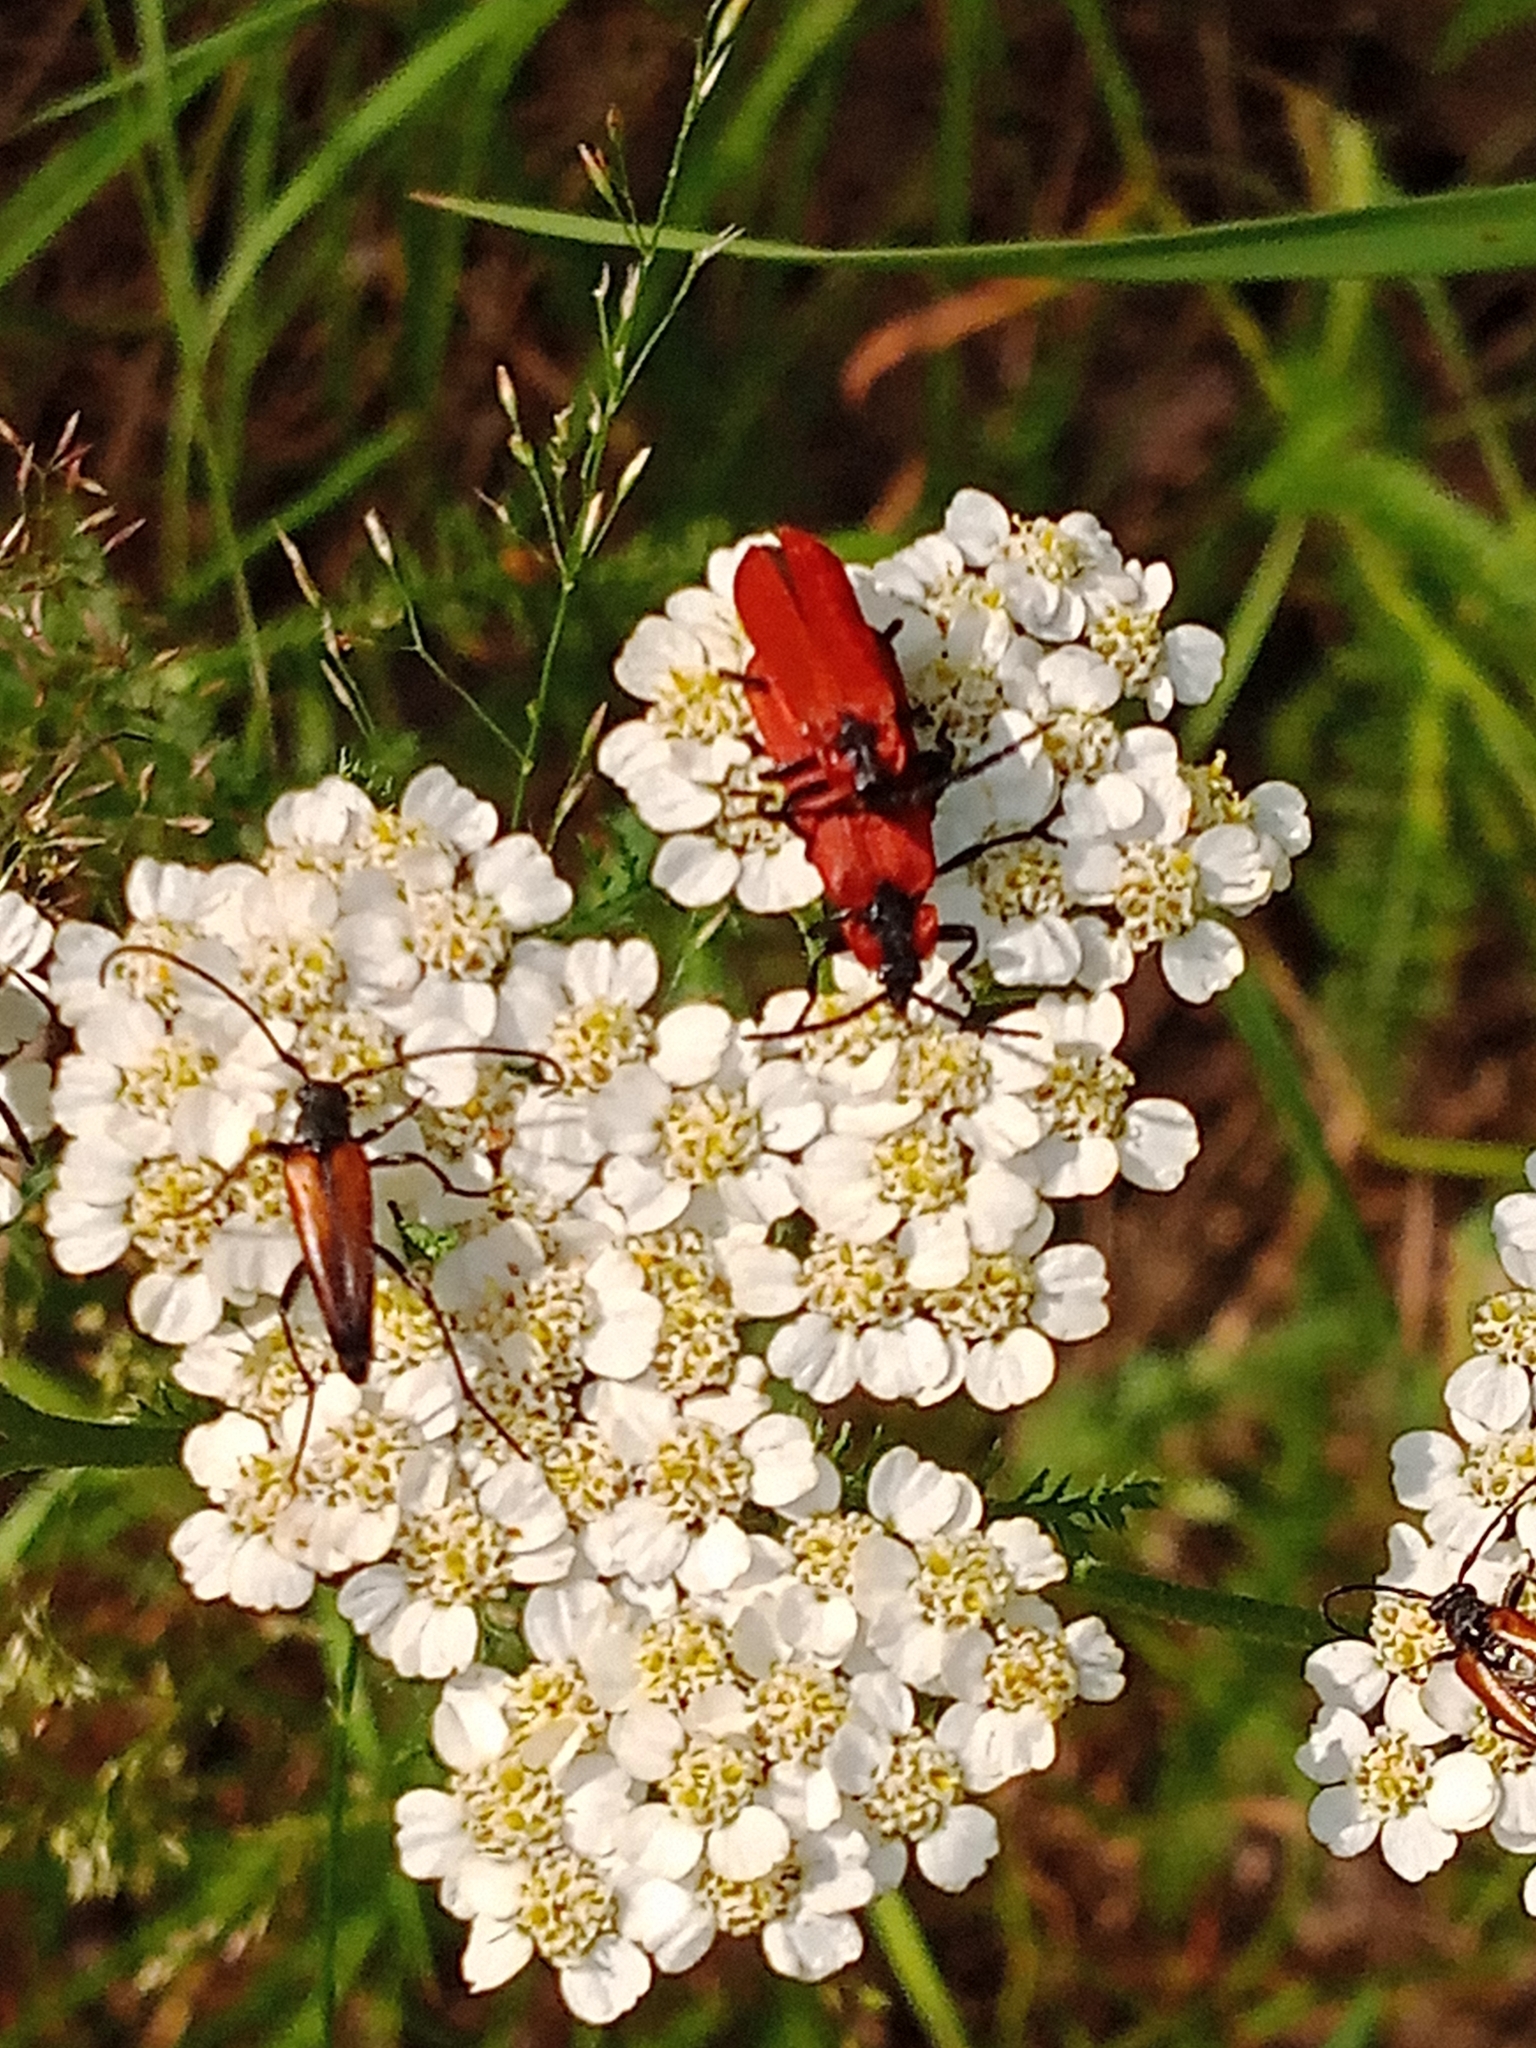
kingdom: Animalia
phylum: Arthropoda
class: Insecta
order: Coleoptera
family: Lycidae
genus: Lygistopterus
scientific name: Lygistopterus sanguineus
